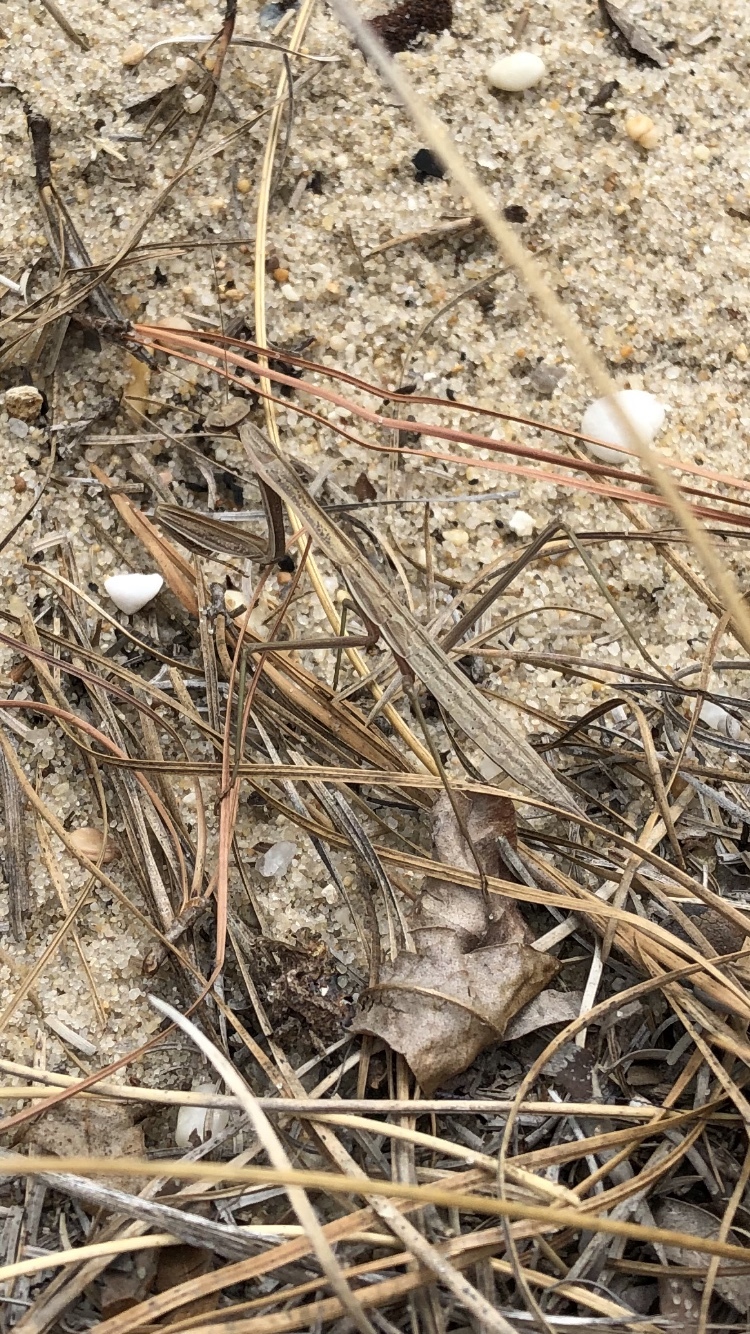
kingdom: Animalia
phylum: Arthropoda
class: Insecta
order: Mantodea
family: Mantidae
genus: Tenodera
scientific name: Tenodera
